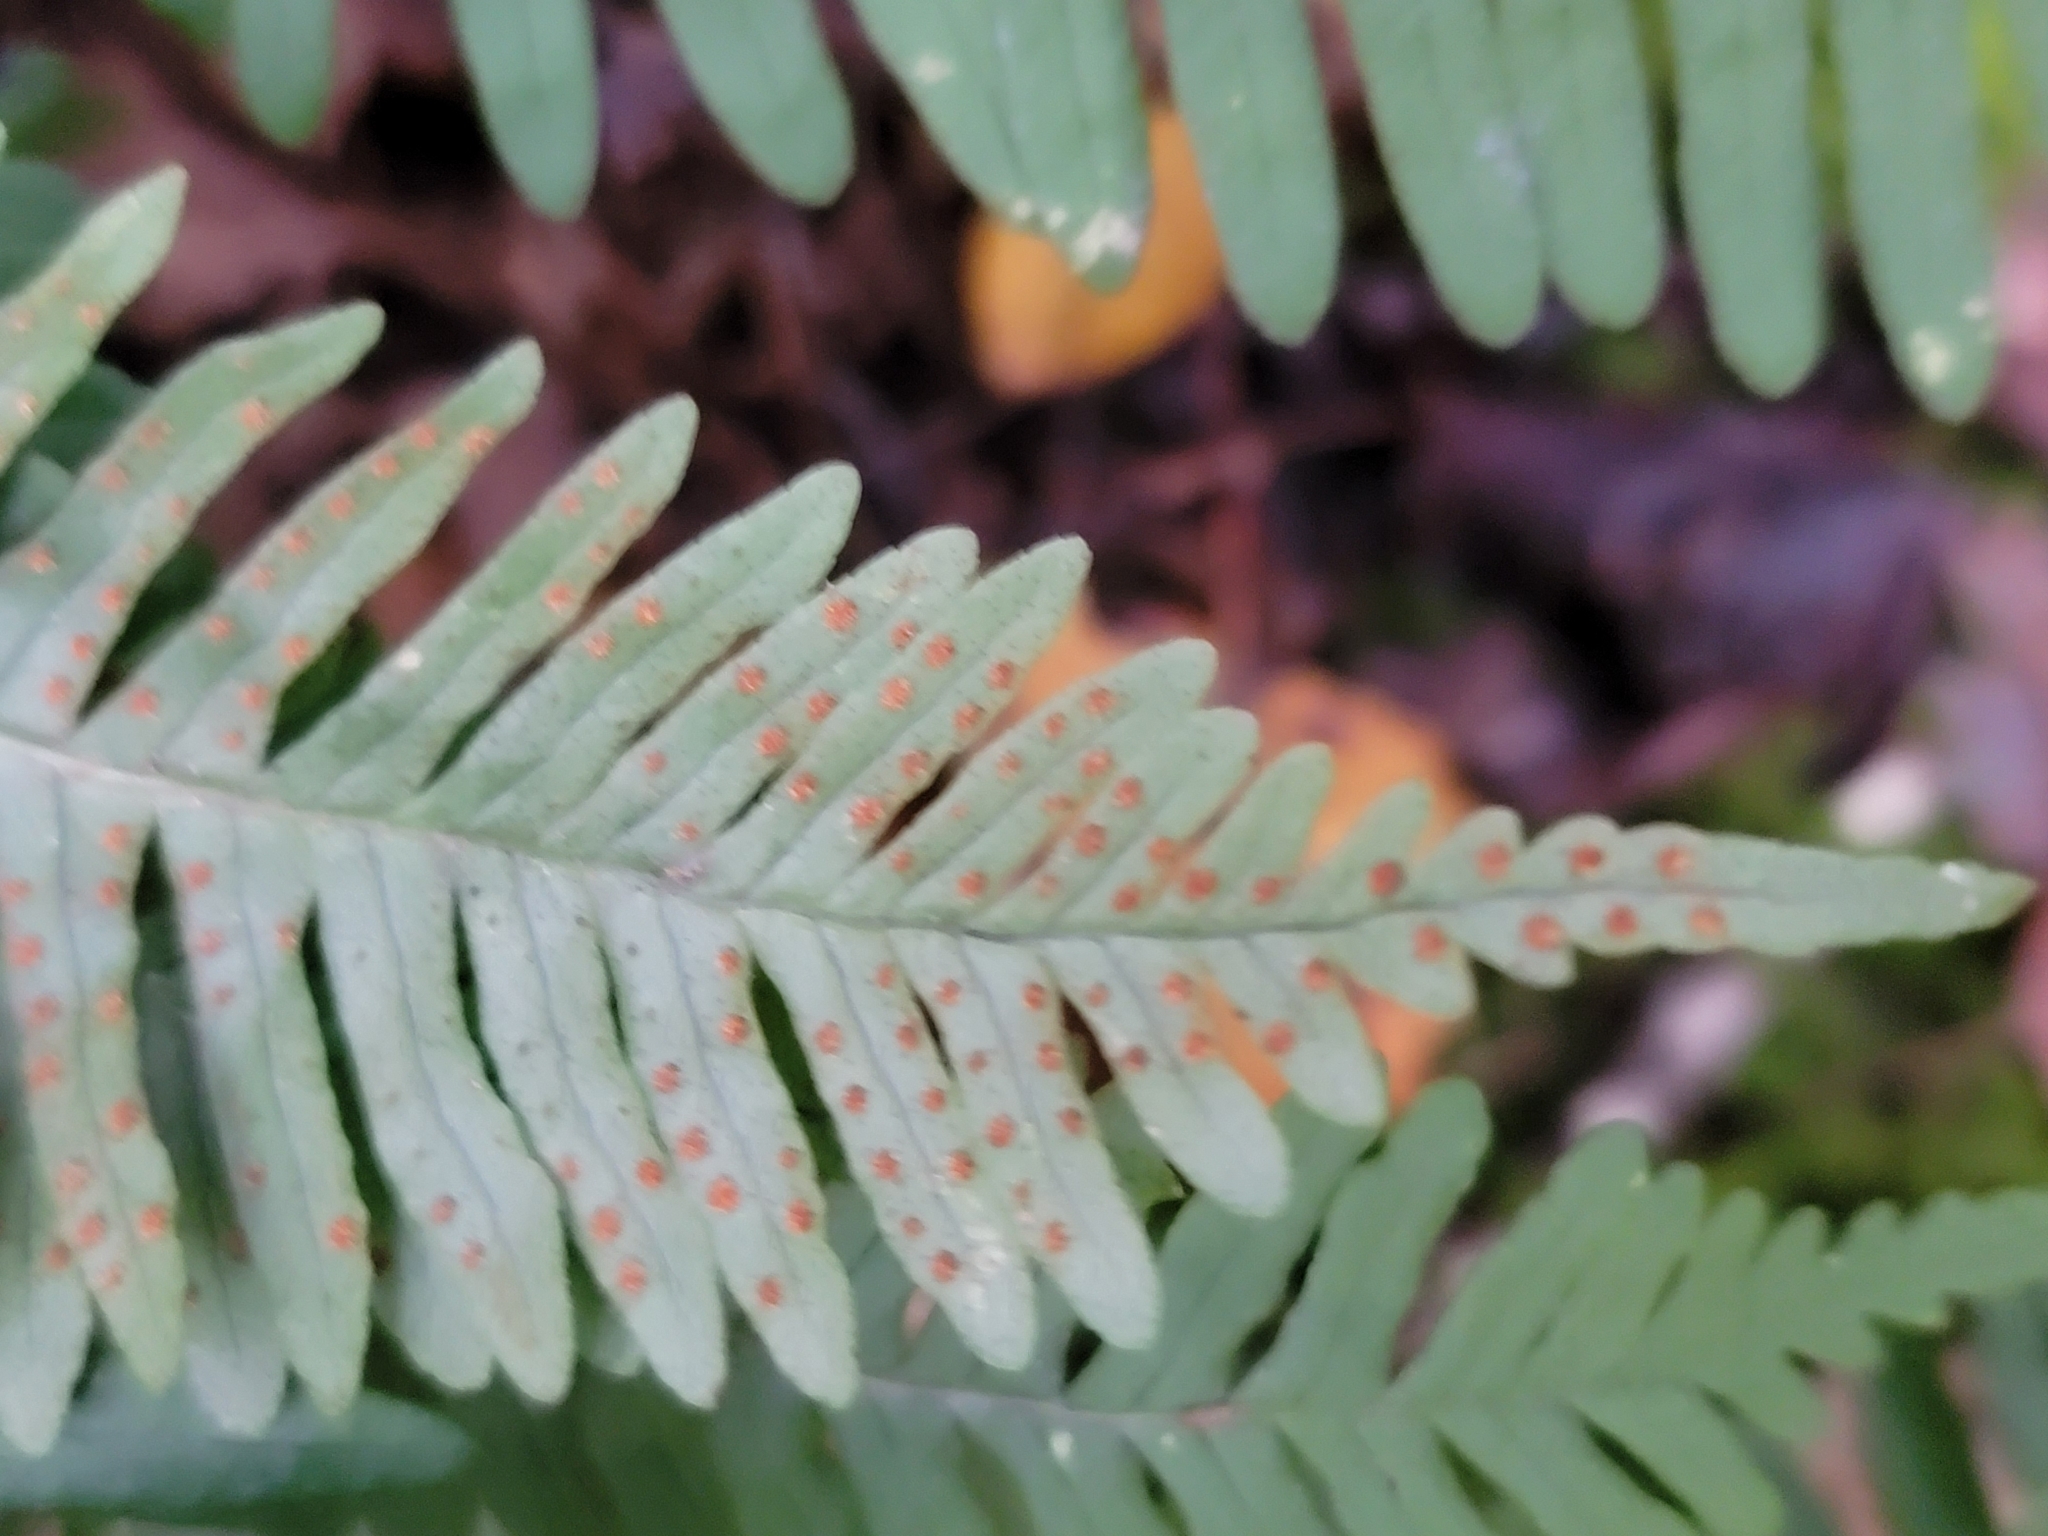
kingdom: Plantae
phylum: Tracheophyta
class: Polypodiopsida
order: Polypodiales
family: Polypodiaceae
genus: Polypodium
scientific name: Polypodium virginianum
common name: American wall fern
